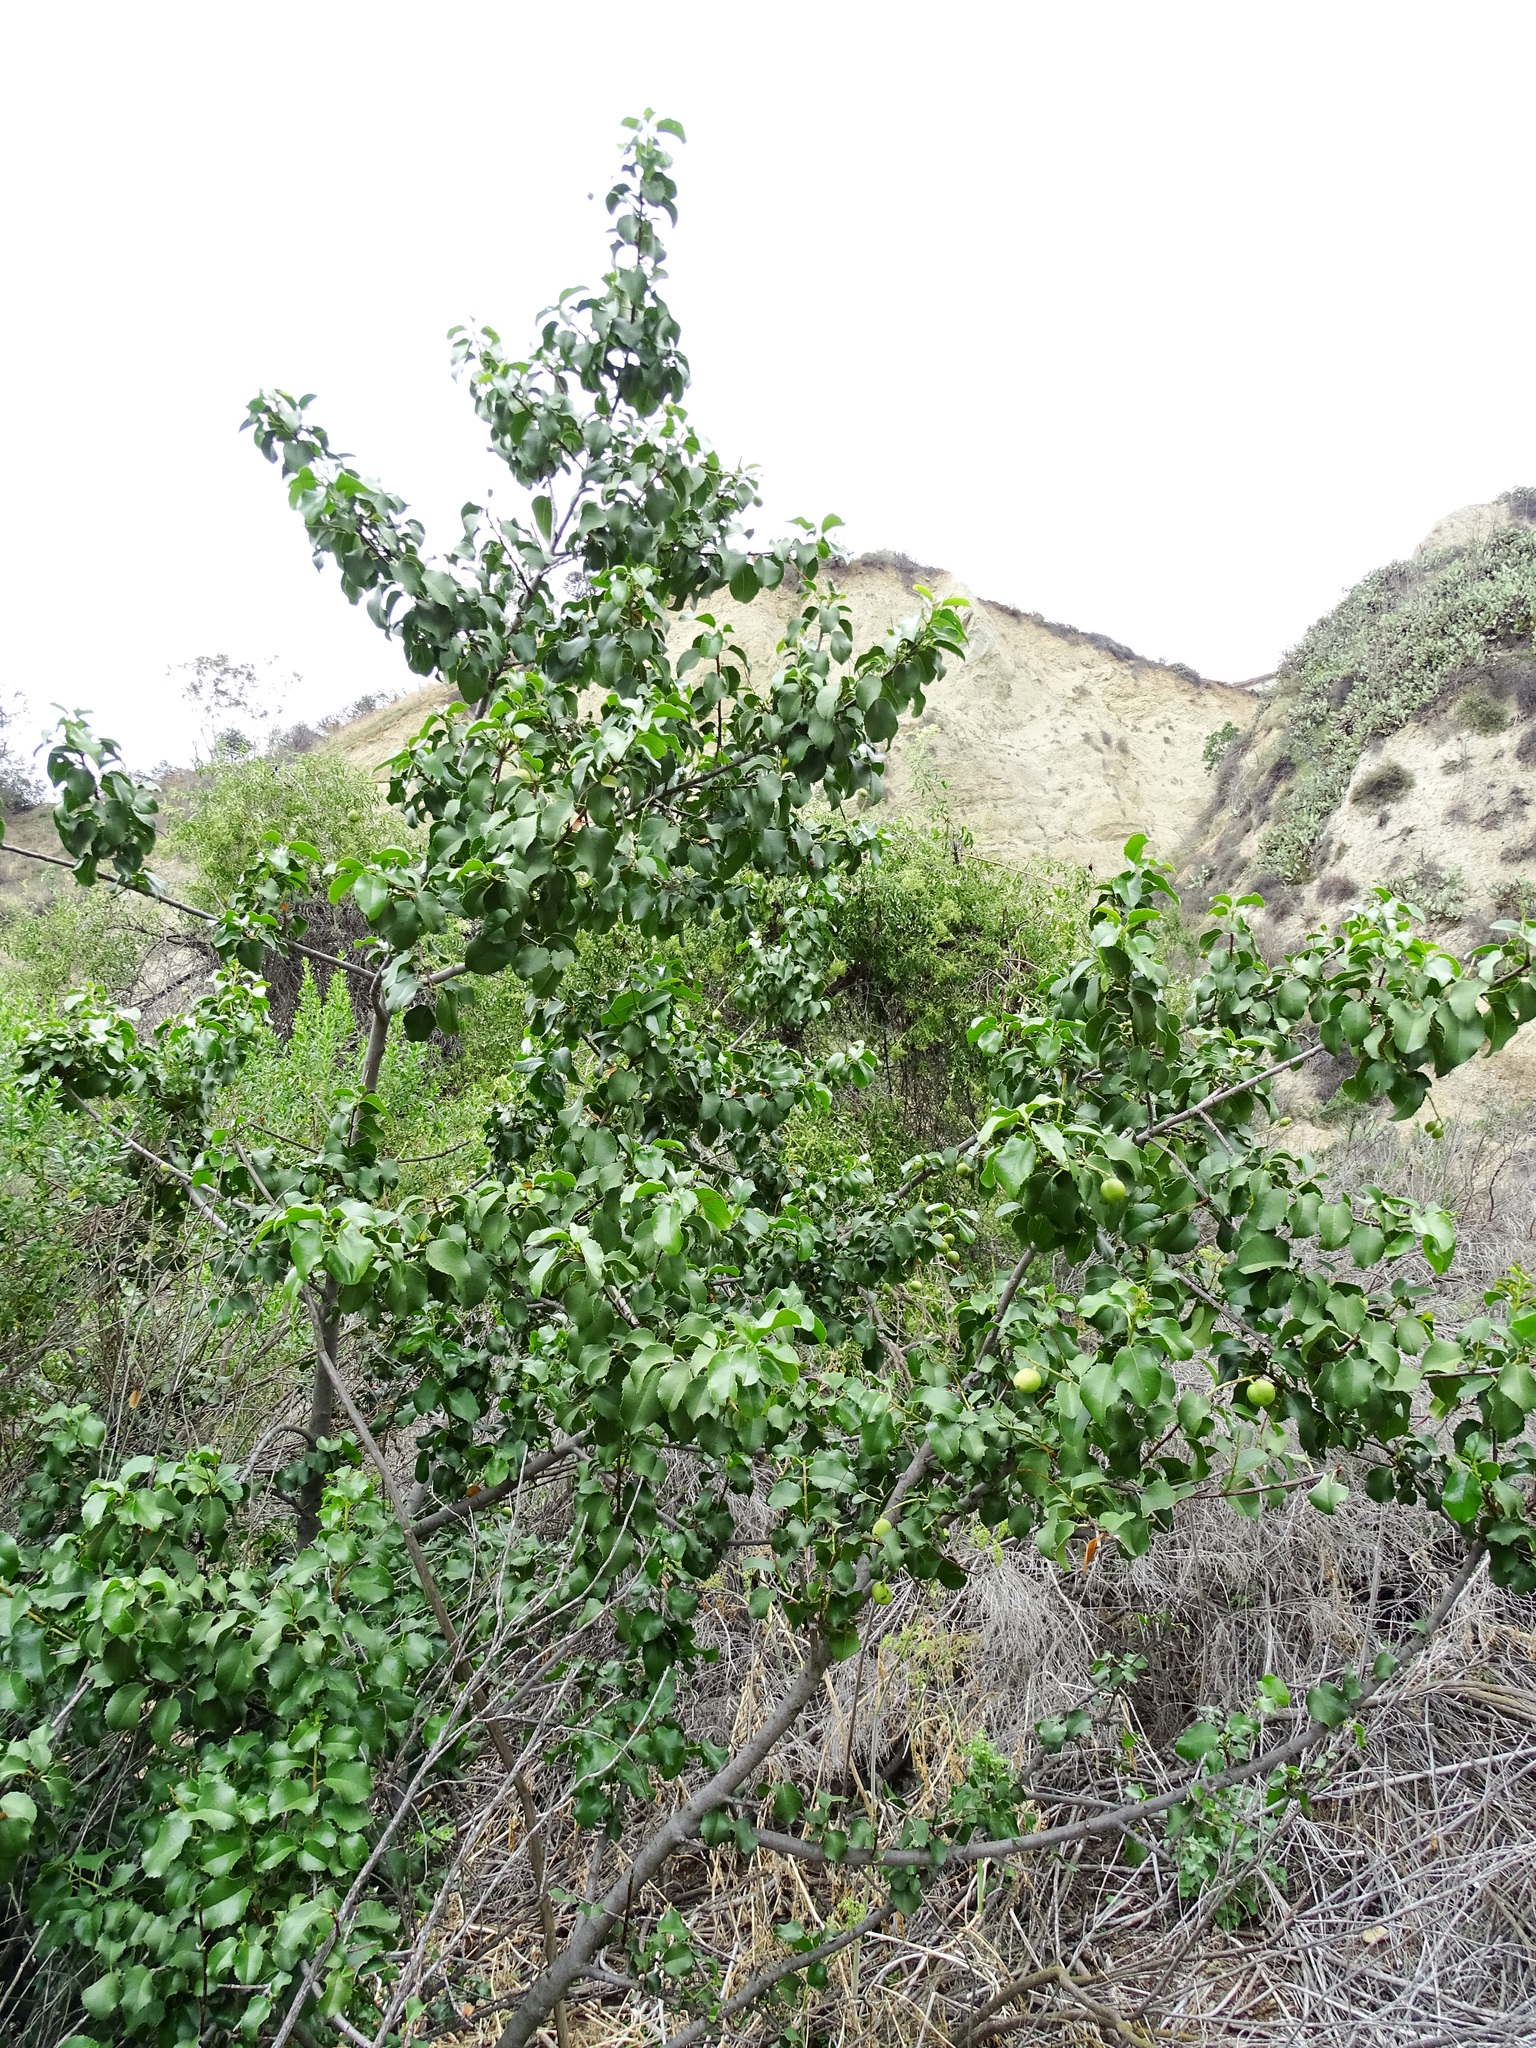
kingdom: Plantae
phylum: Tracheophyta
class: Magnoliopsida
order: Rosales
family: Rosaceae
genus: Prunus
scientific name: Prunus ilicifolia
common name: Hollyleaf cherry
